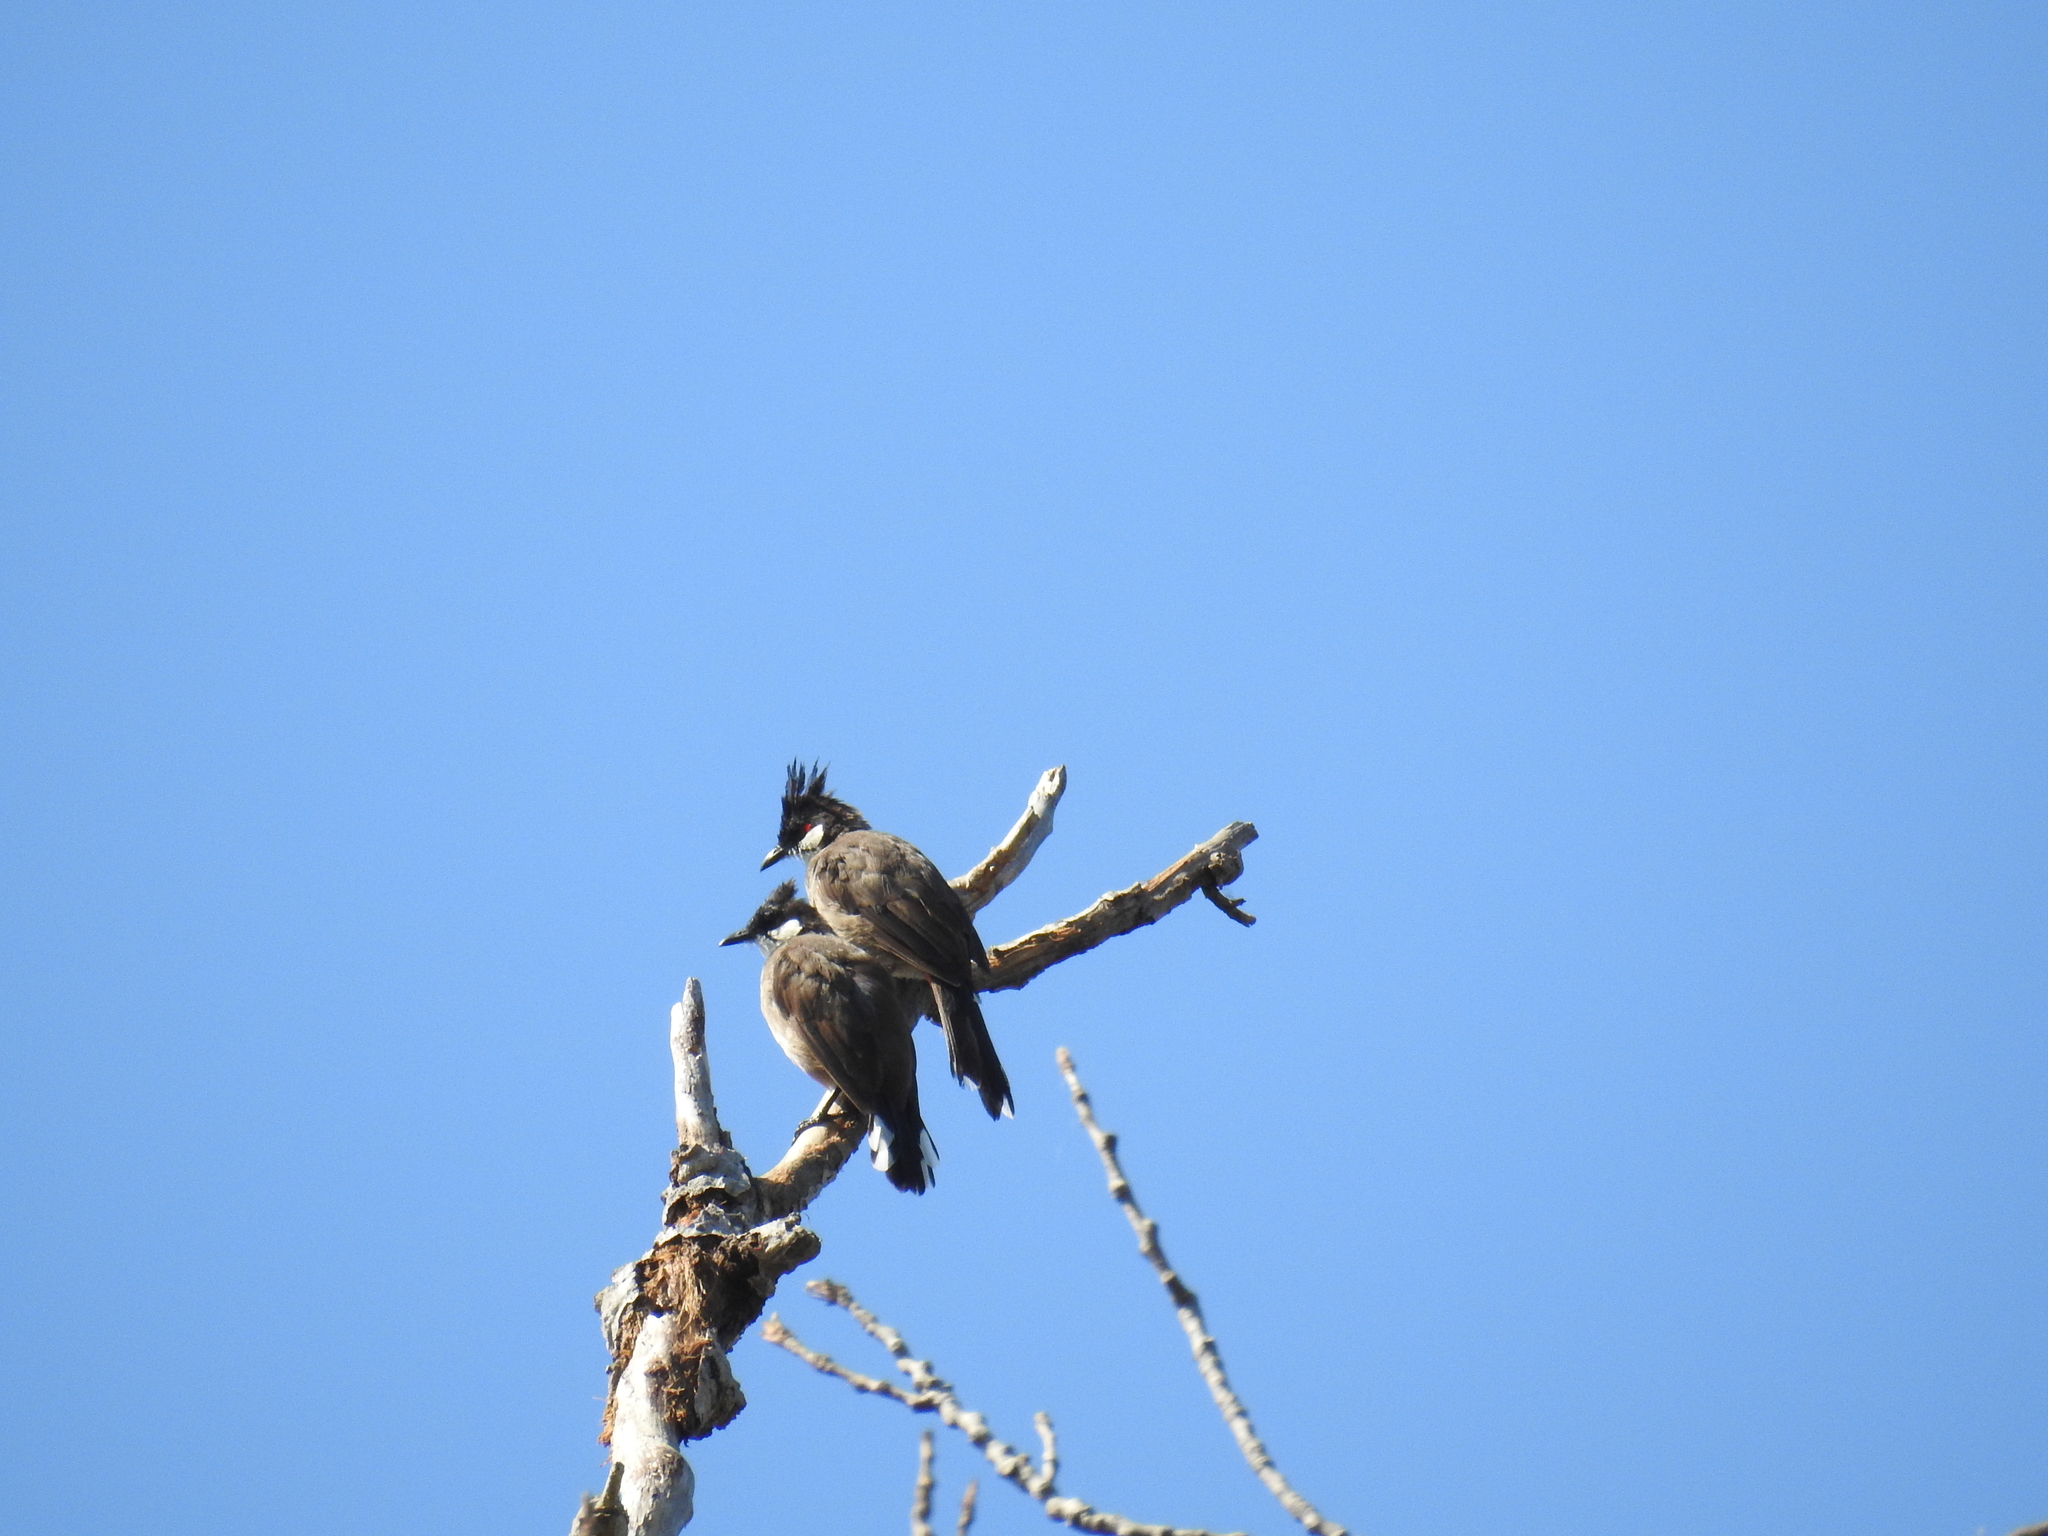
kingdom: Animalia
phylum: Chordata
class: Aves
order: Passeriformes
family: Pycnonotidae
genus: Pycnonotus
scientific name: Pycnonotus jocosus
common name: Red-whiskered bulbul
